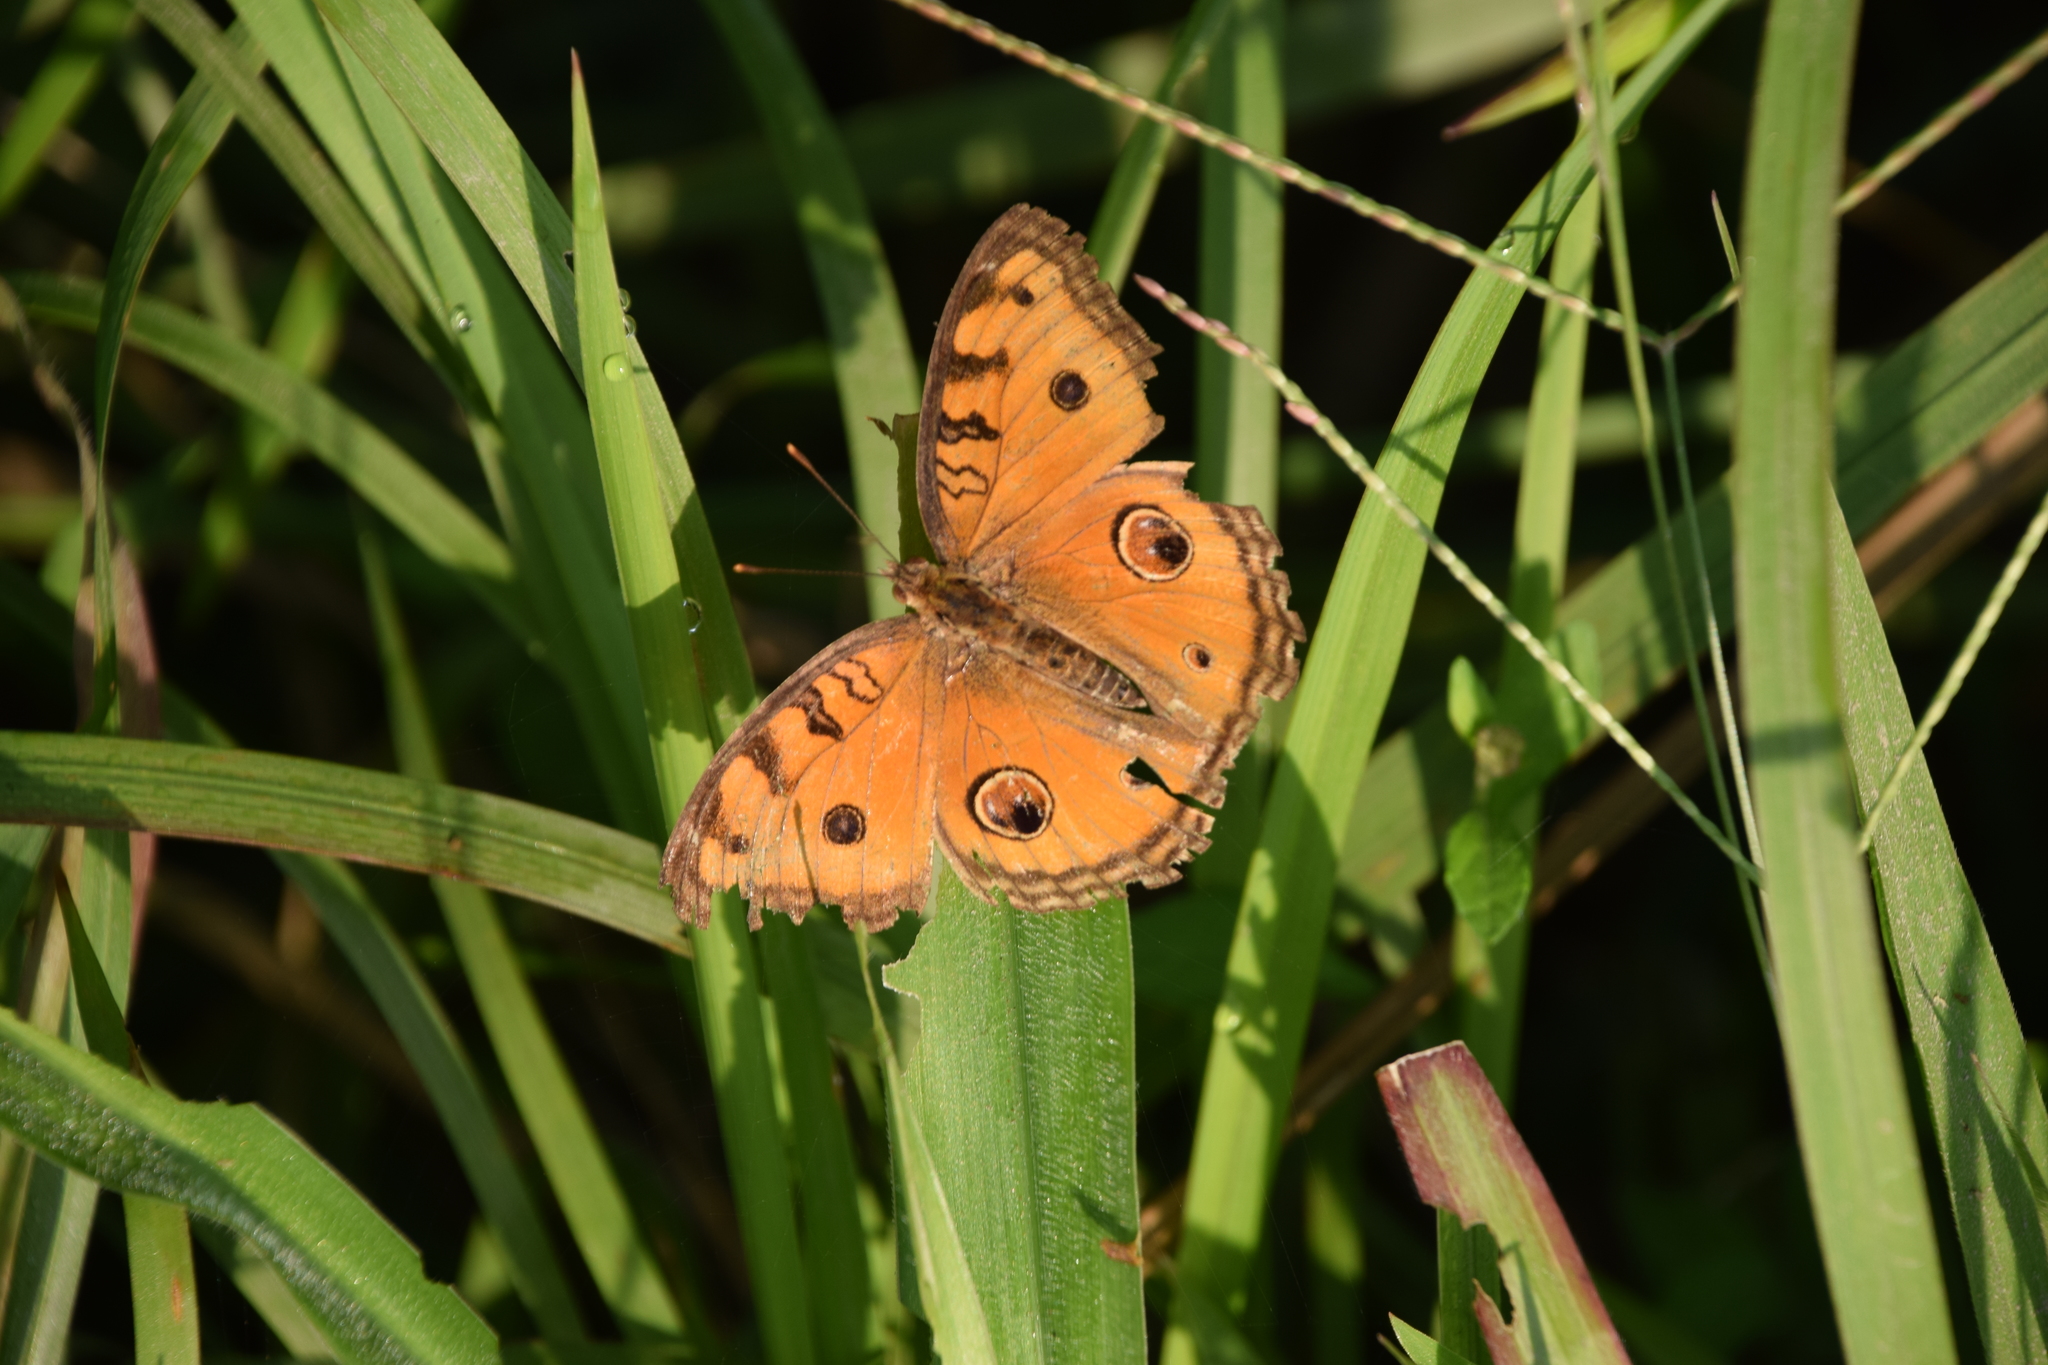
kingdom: Animalia
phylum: Arthropoda
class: Insecta
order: Lepidoptera
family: Nymphalidae
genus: Junonia
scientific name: Junonia almana
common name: Peacock pansy
